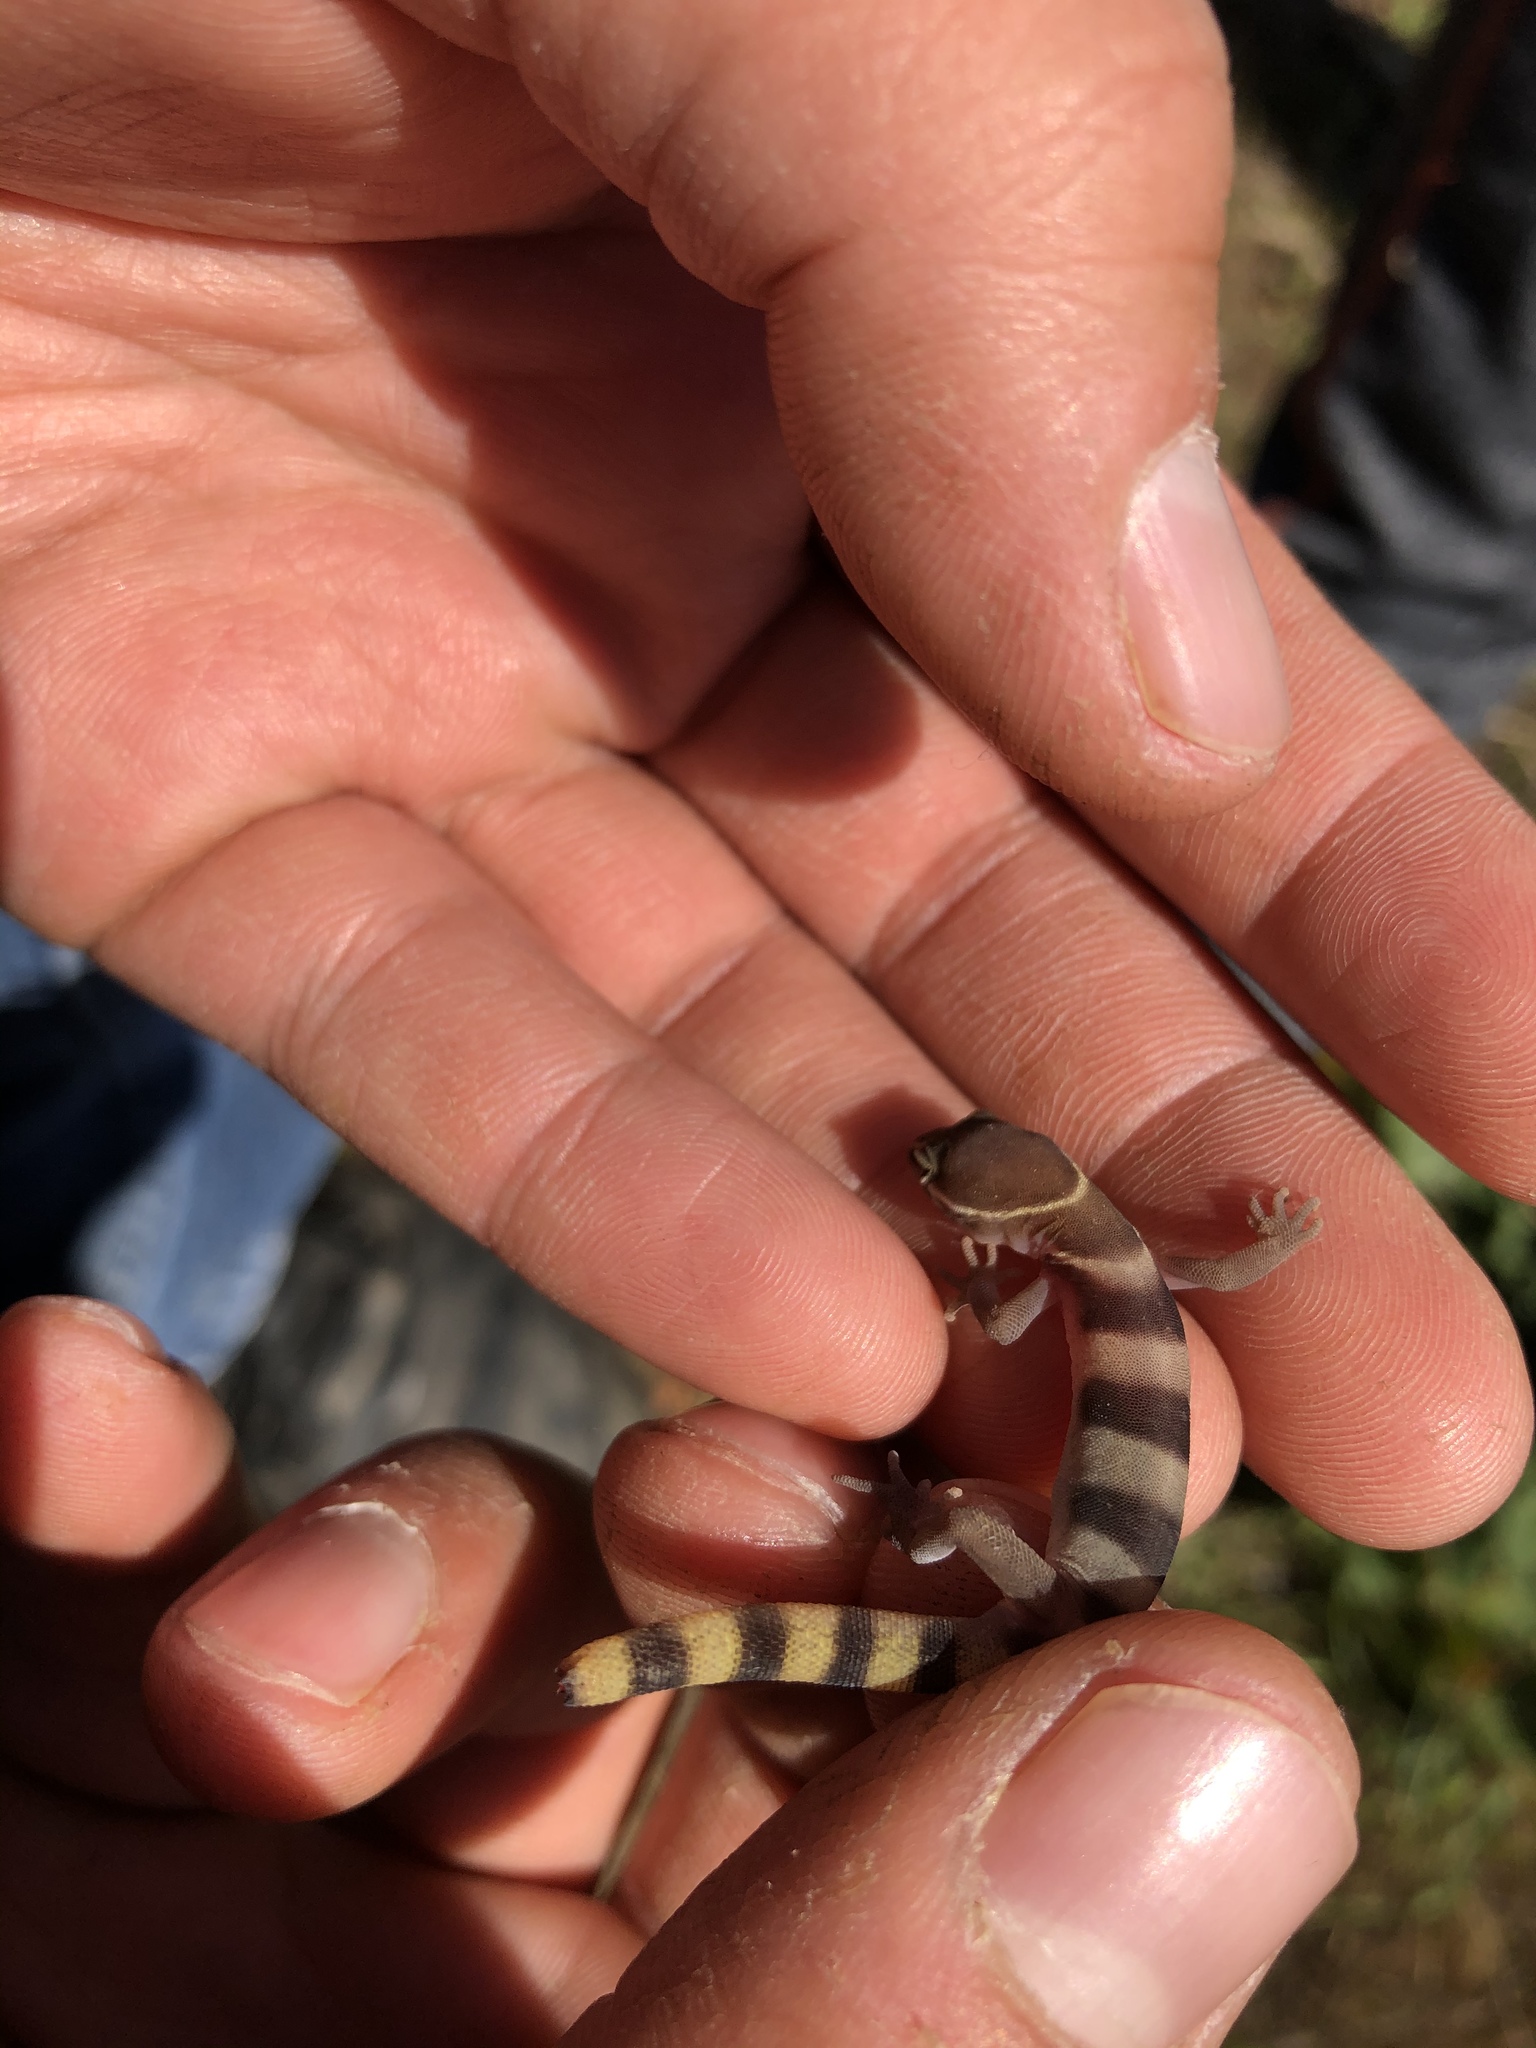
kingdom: Animalia
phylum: Chordata
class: Squamata
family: Eublepharidae
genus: Coleonyx
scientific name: Coleonyx variegatus
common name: Western banded gecko
